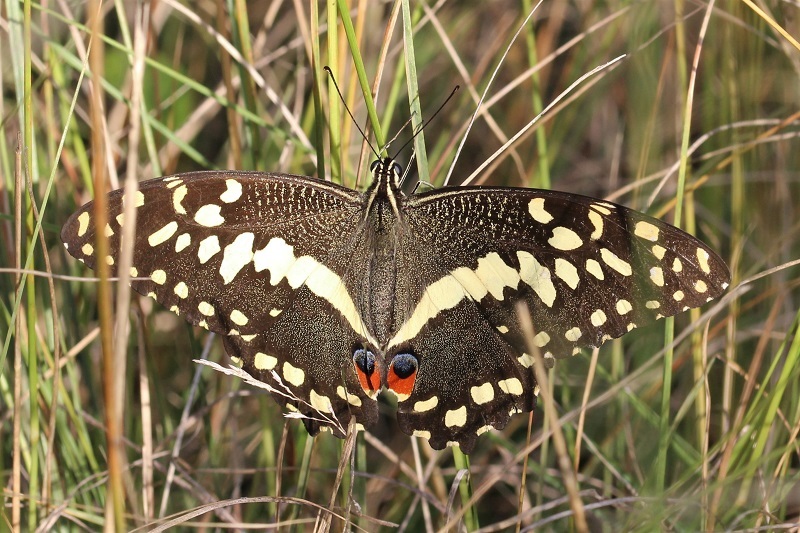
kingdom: Animalia
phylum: Arthropoda
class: Insecta
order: Lepidoptera
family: Papilionidae
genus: Papilio
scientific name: Papilio demodocus
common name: Christmas butterfly
